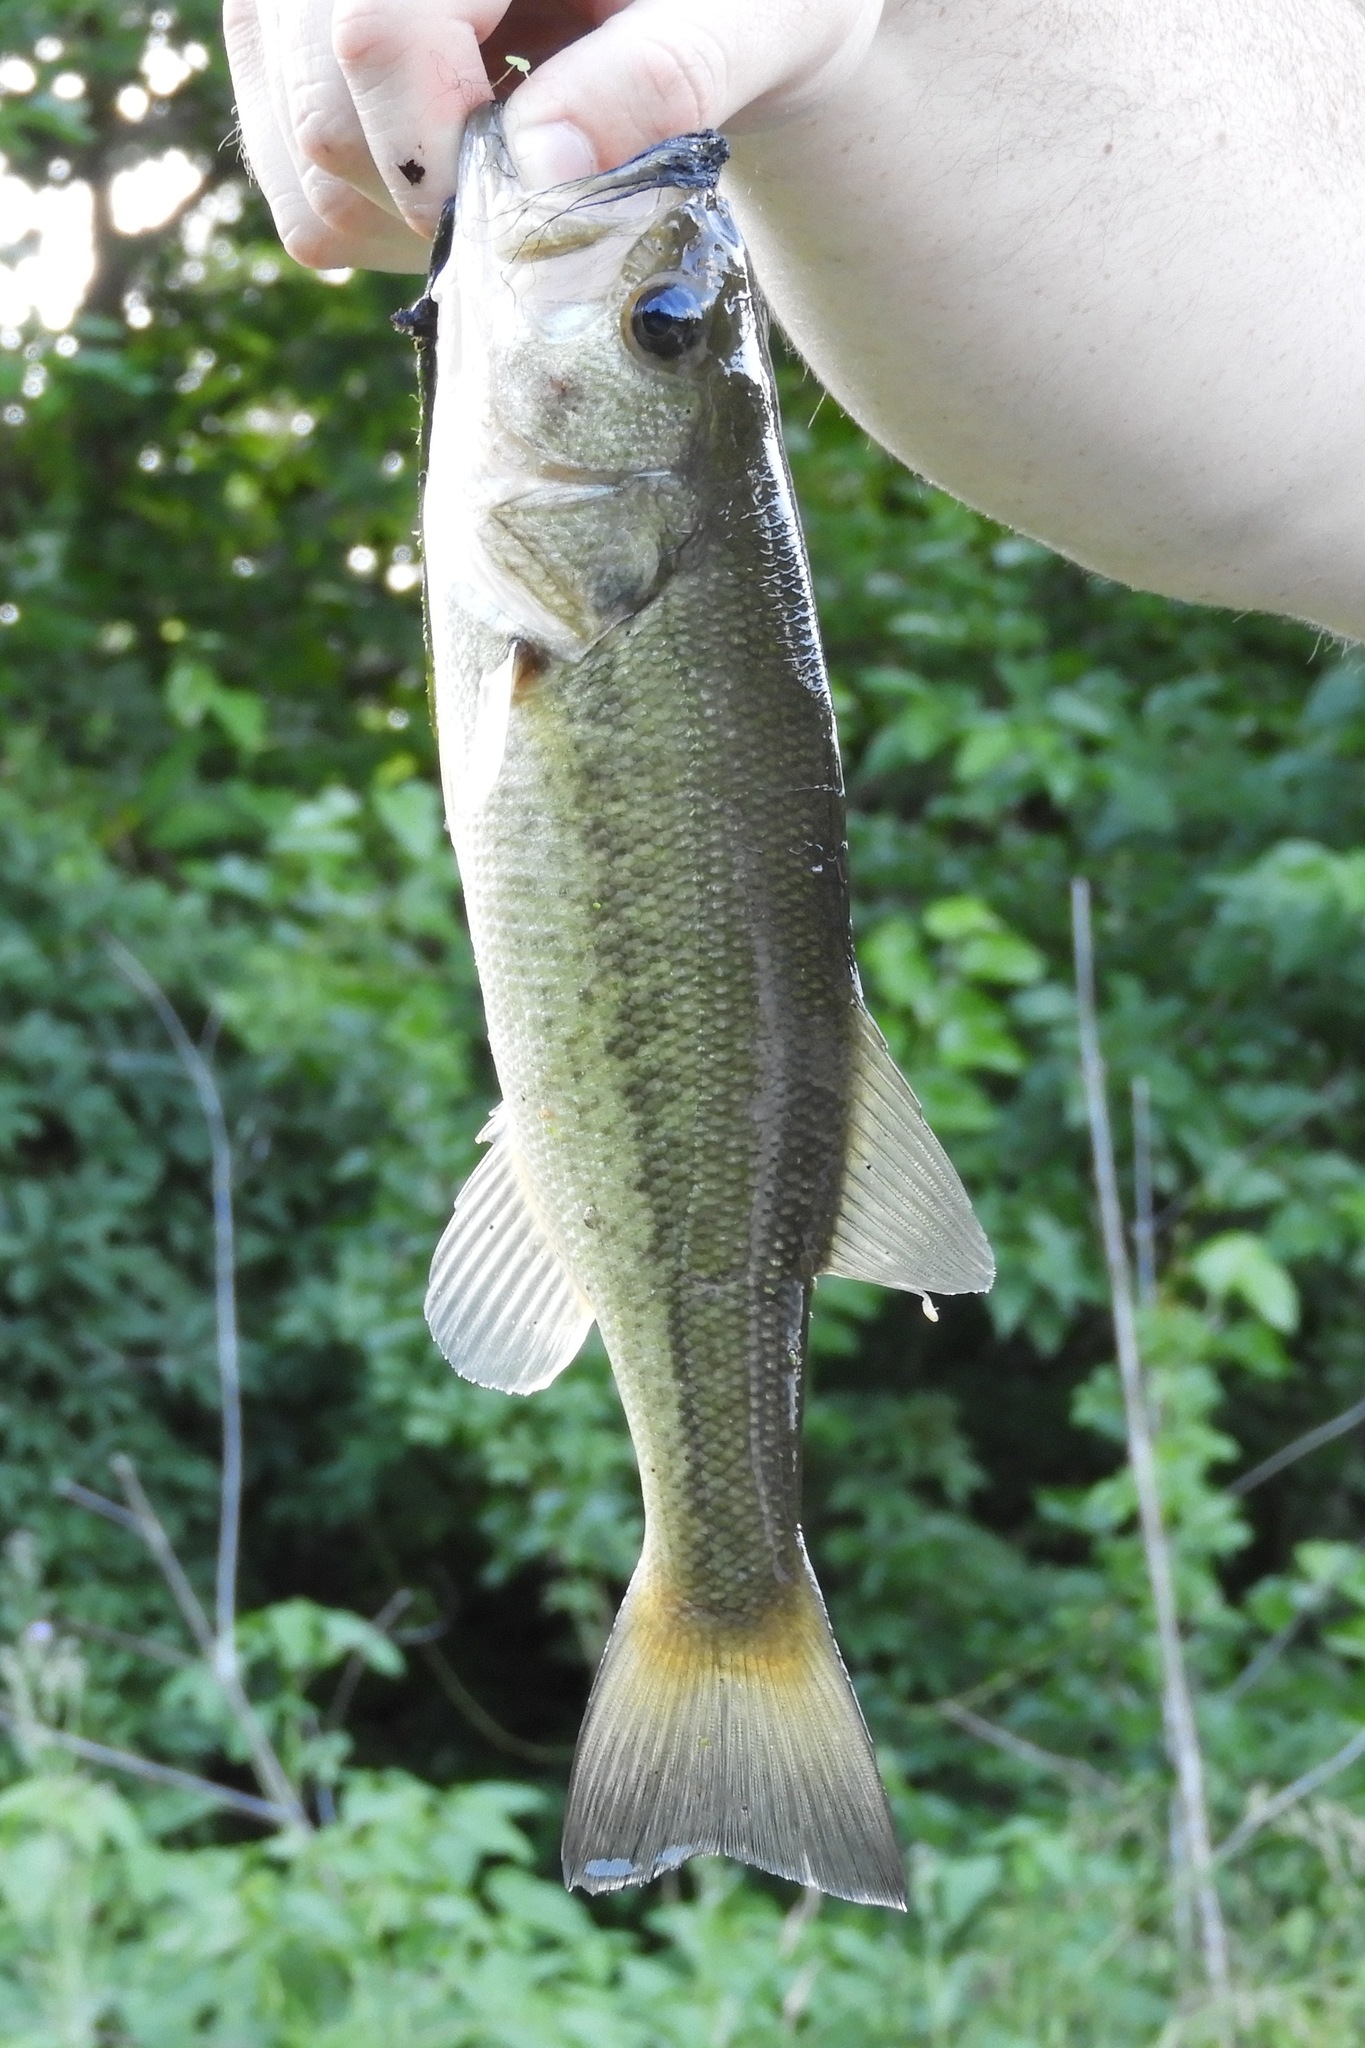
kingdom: Animalia
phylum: Chordata
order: Perciformes
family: Centrarchidae
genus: Micropterus
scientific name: Micropterus
